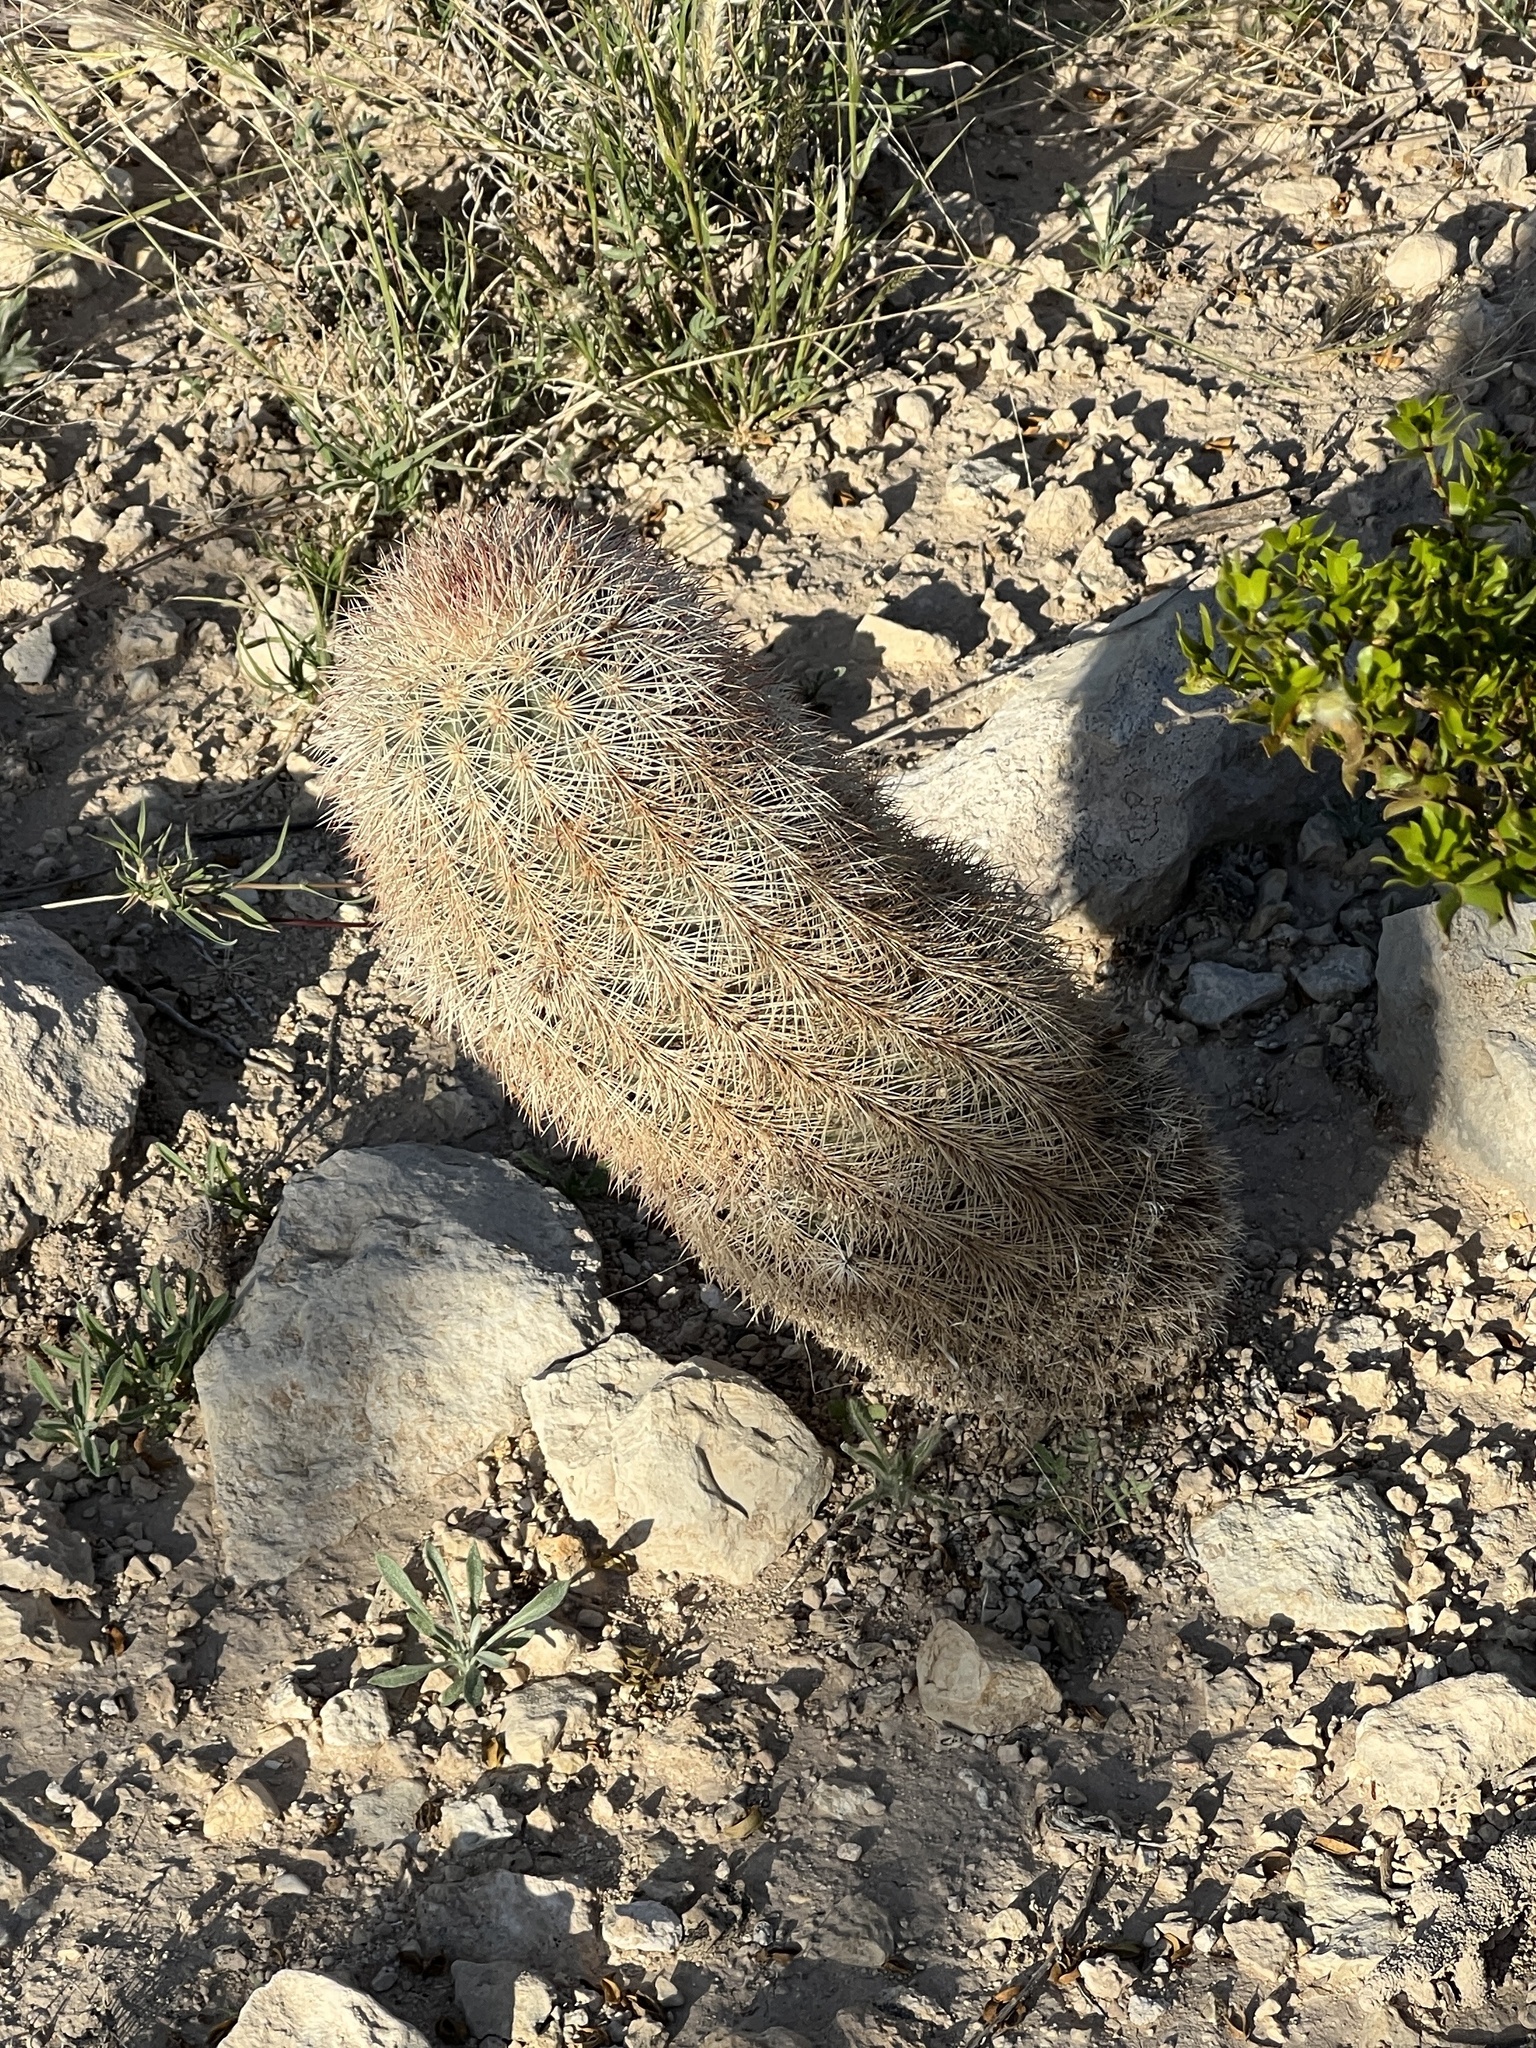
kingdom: Plantae
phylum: Tracheophyta
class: Magnoliopsida
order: Caryophyllales
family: Cactaceae
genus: Echinocereus
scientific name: Echinocereus dasyacanthus
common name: Spiny hedgehog cactus
